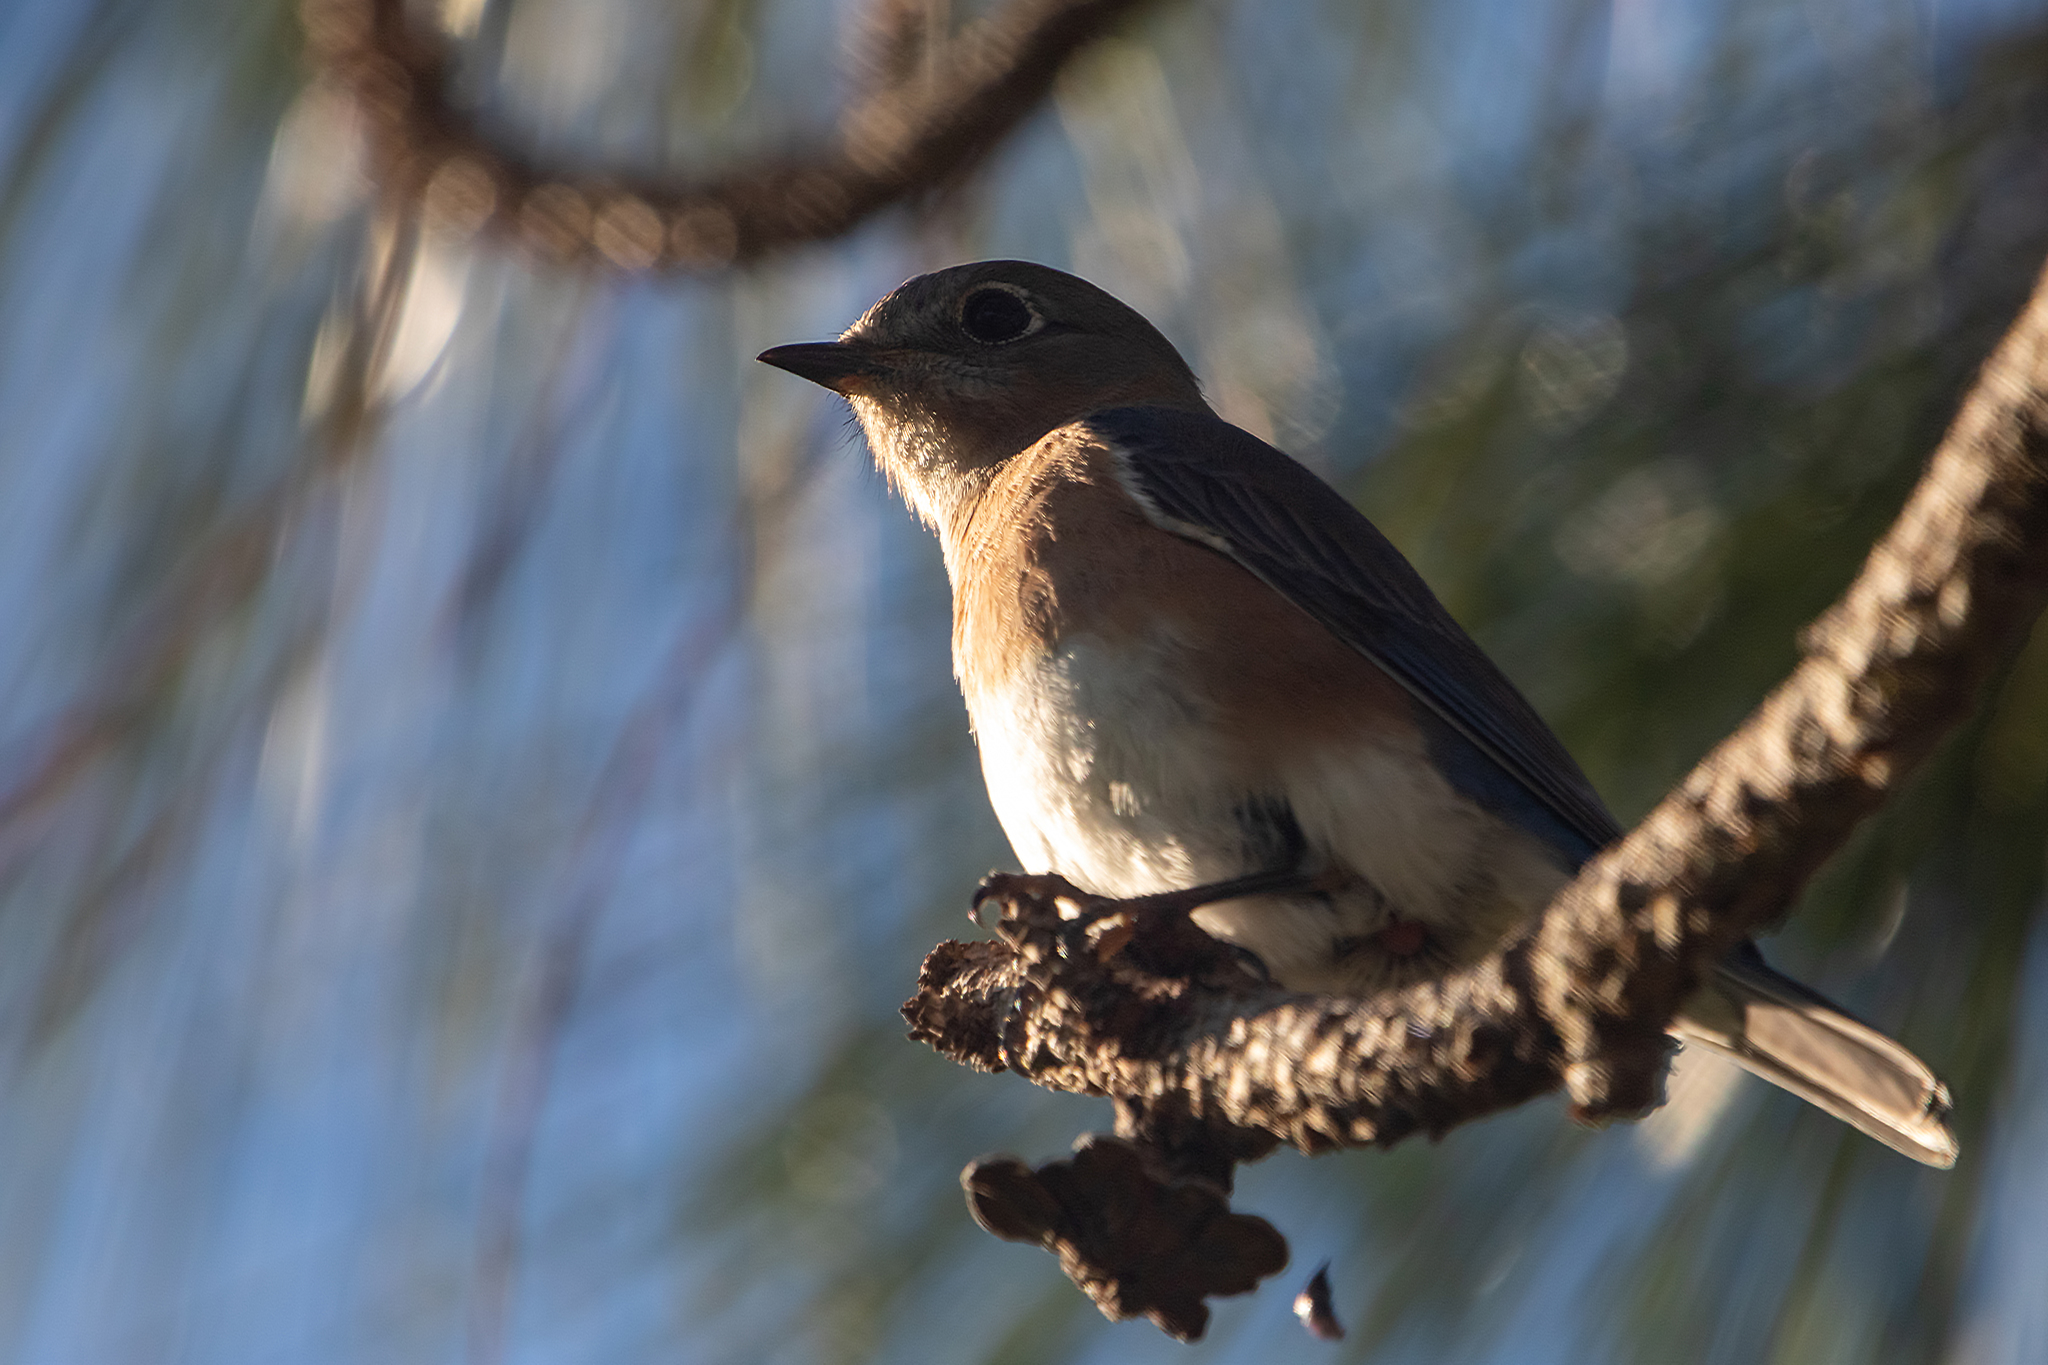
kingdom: Animalia
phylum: Chordata
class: Aves
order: Passeriformes
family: Turdidae
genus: Sialia
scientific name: Sialia sialis
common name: Eastern bluebird
